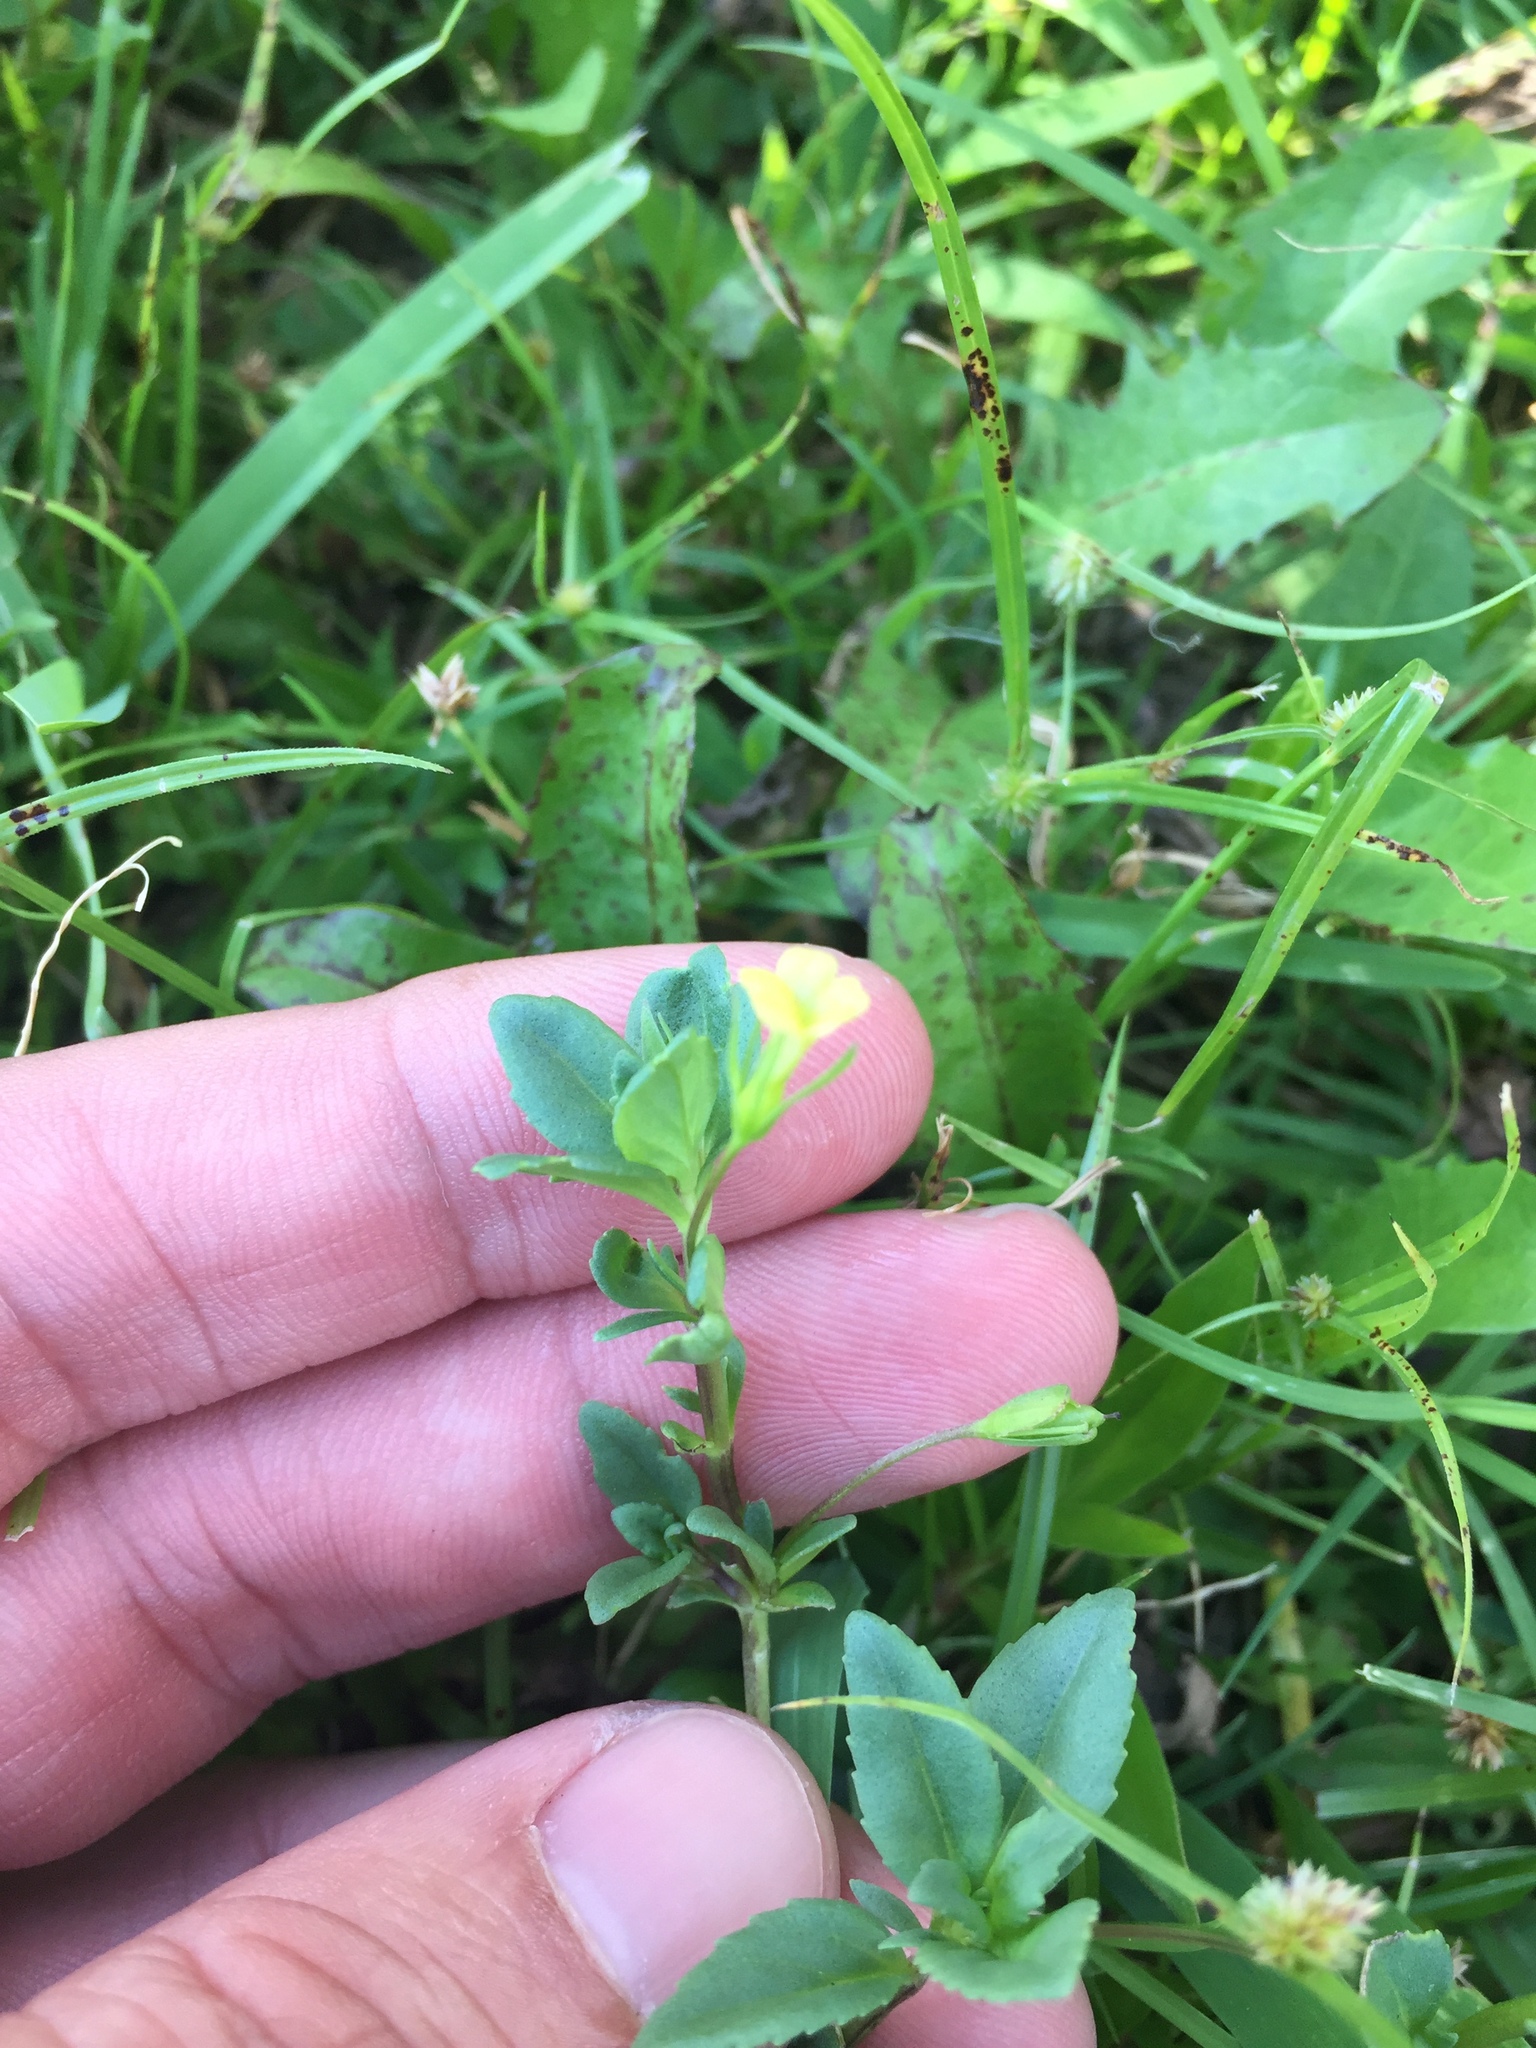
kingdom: Plantae
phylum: Tracheophyta
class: Magnoliopsida
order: Lamiales
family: Plantaginaceae
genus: Mecardonia
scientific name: Mecardonia procumbens
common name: Baby jump-up
